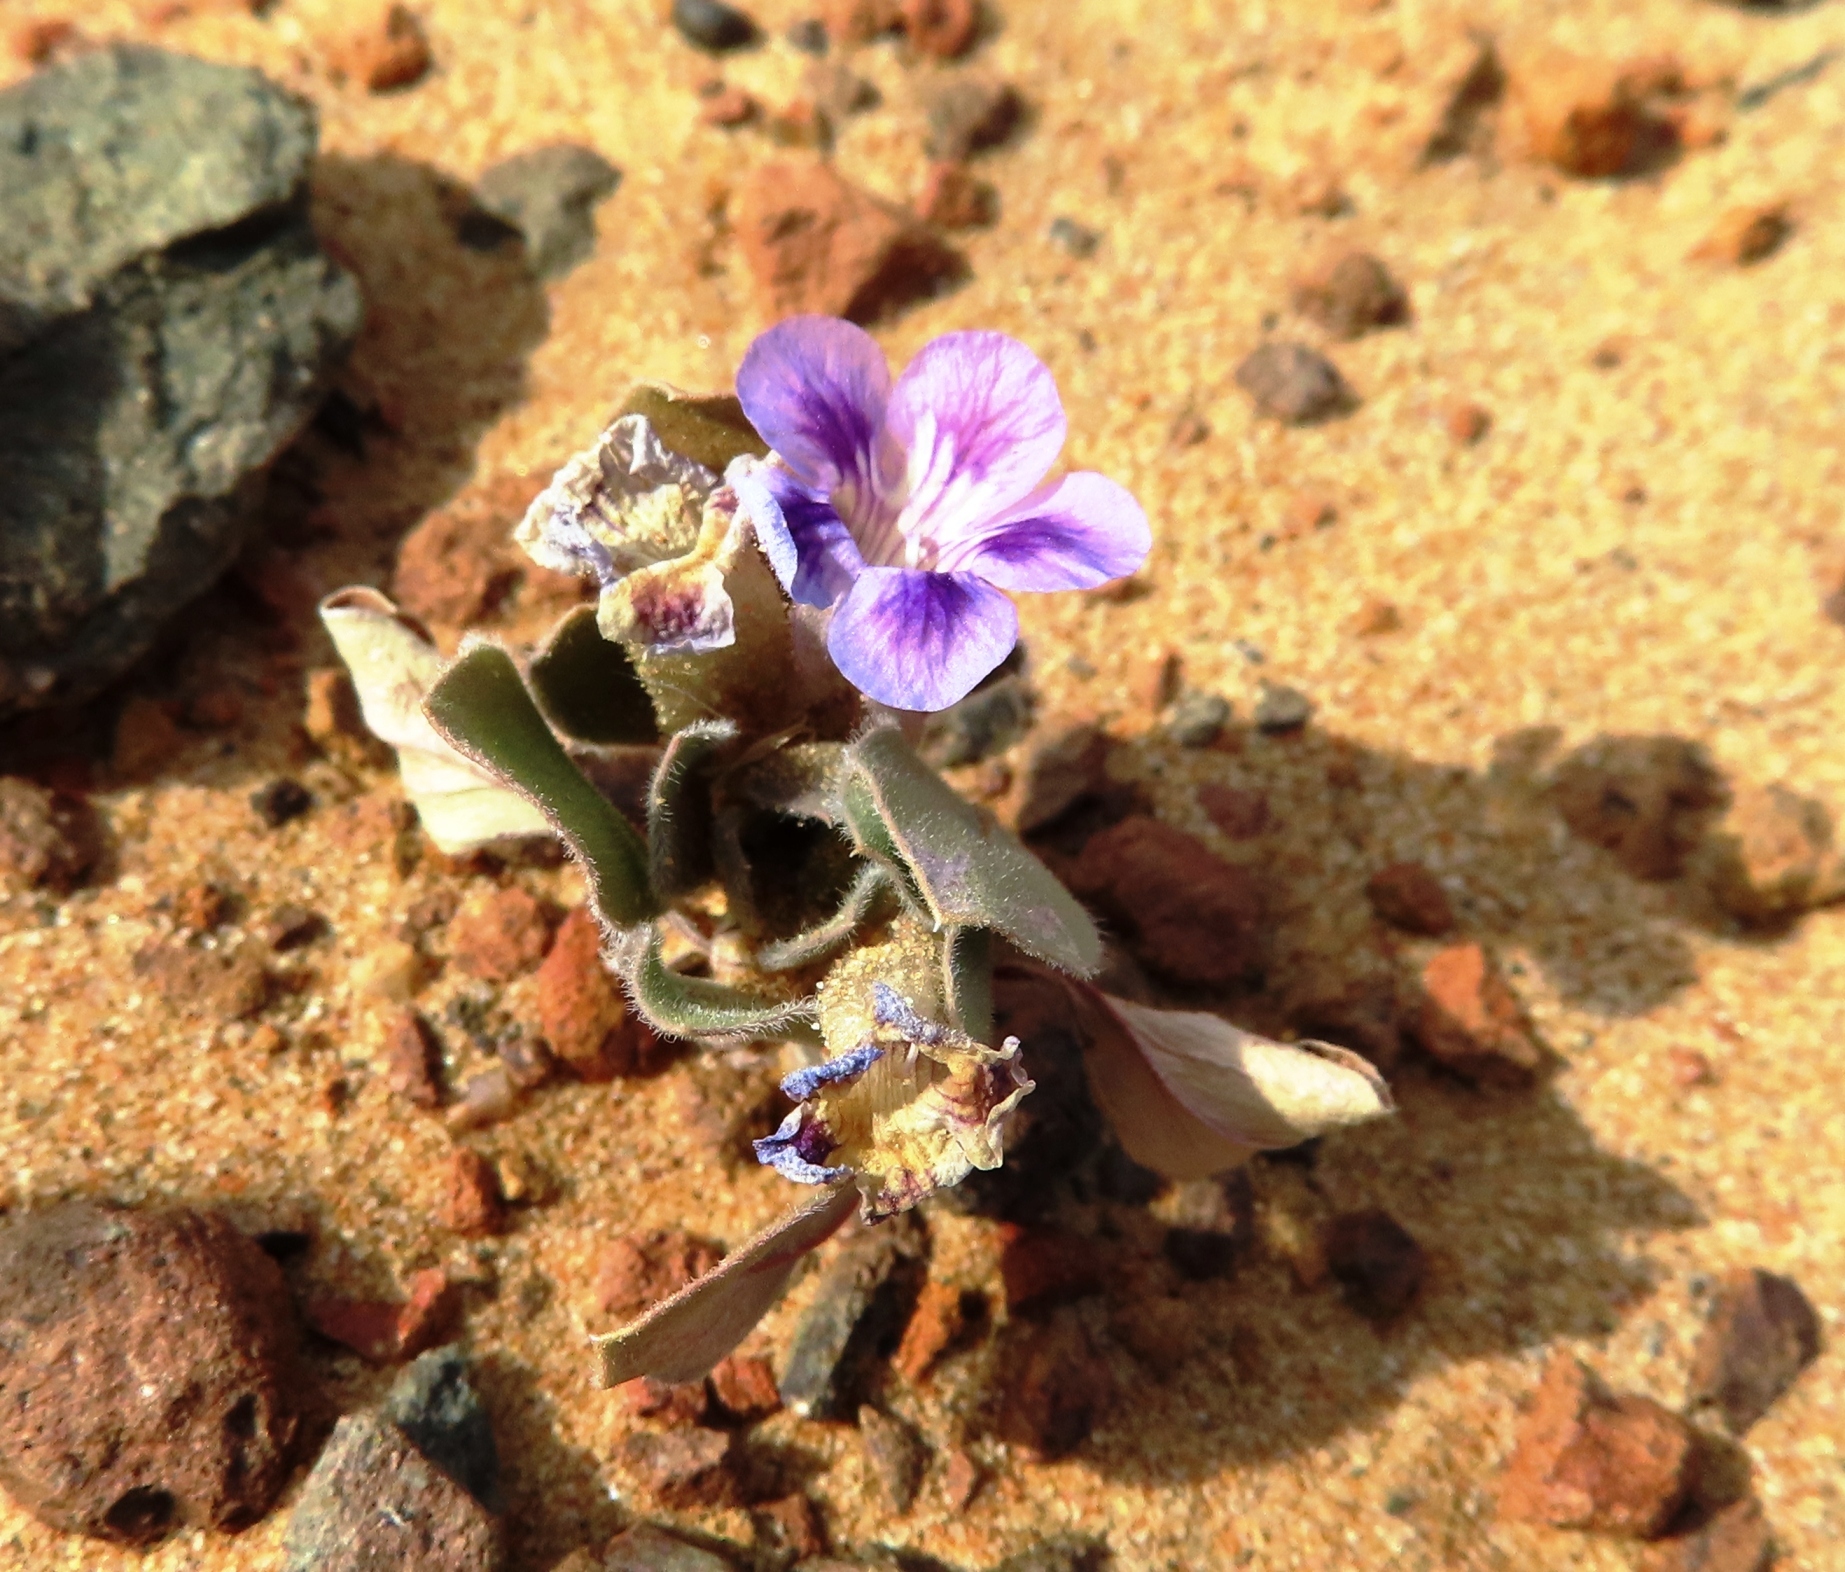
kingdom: Plantae
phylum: Tracheophyta
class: Magnoliopsida
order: Lamiales
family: Scrophulariaceae
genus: Aptosimum
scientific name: Aptosimum procumbens
